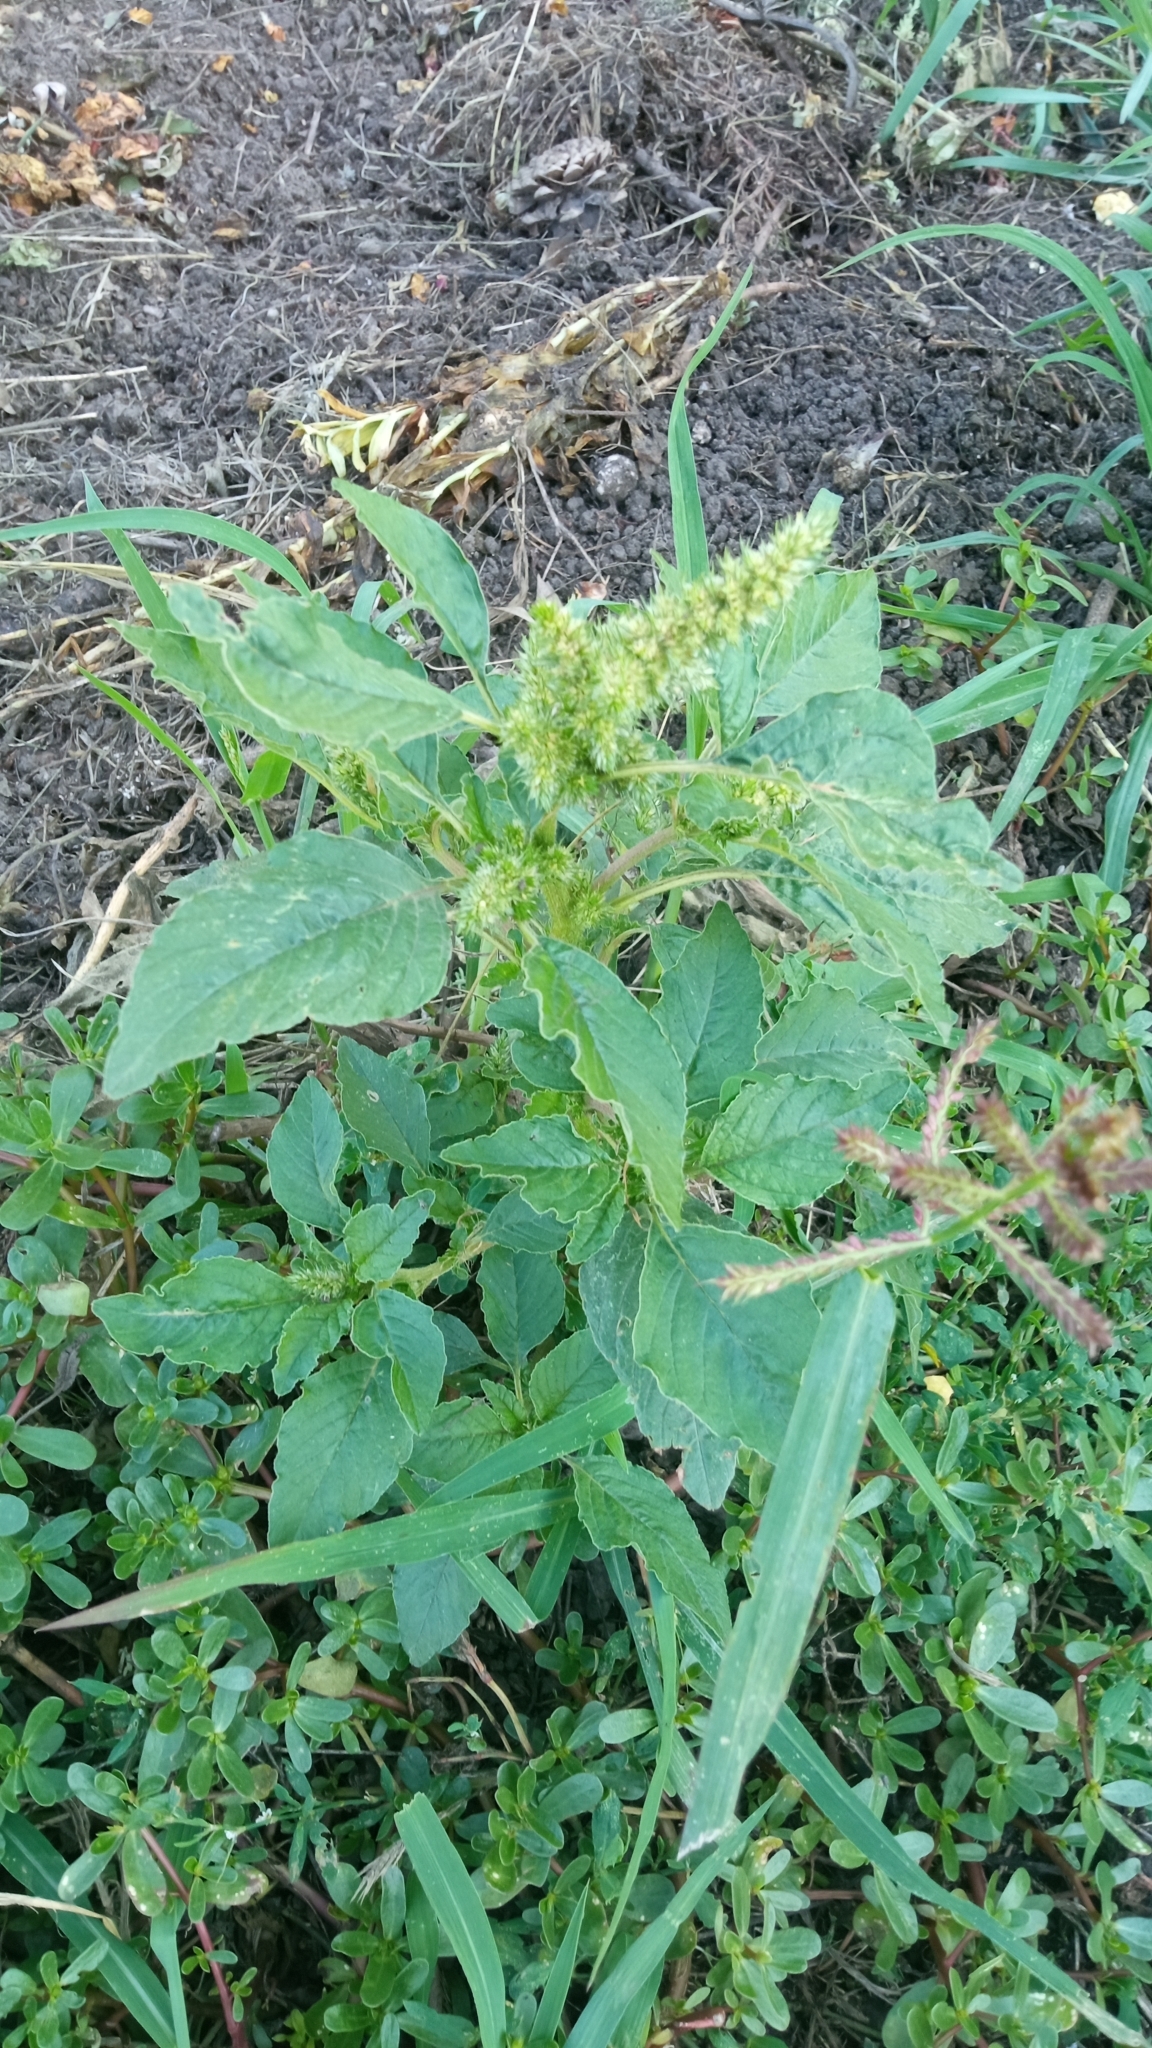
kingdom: Plantae
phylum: Tracheophyta
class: Magnoliopsida
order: Caryophyllales
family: Amaranthaceae
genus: Amaranthus
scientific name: Amaranthus retroflexus
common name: Redroot amaranth
